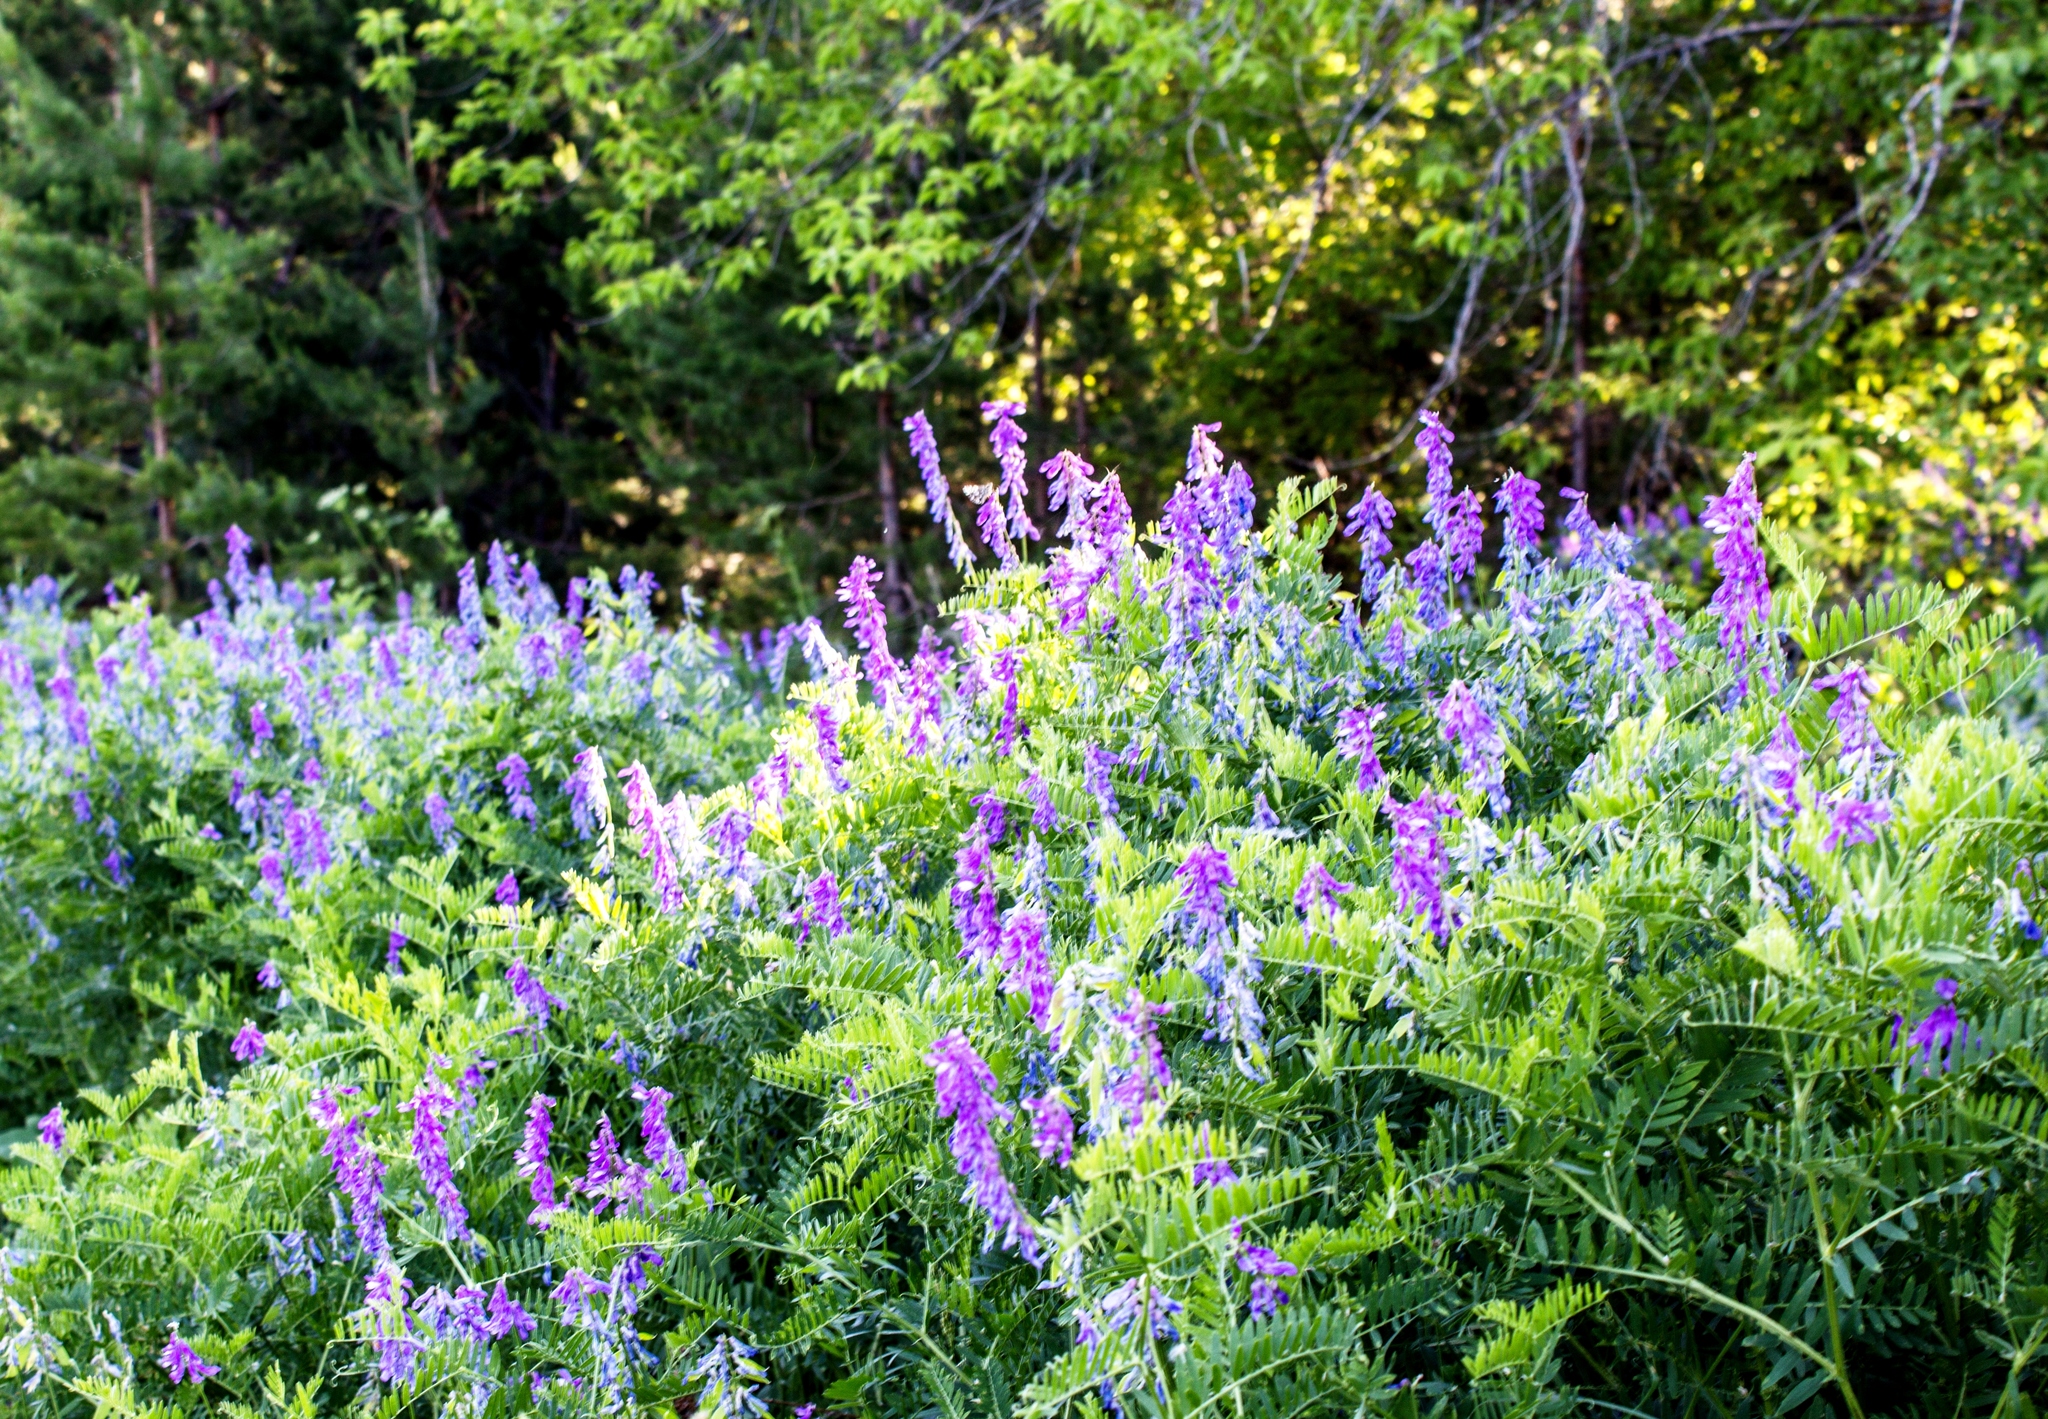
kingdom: Plantae
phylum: Tracheophyta
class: Magnoliopsida
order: Fabales
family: Fabaceae
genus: Vicia
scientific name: Vicia tenuifolia
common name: Fine-leaved vetch
